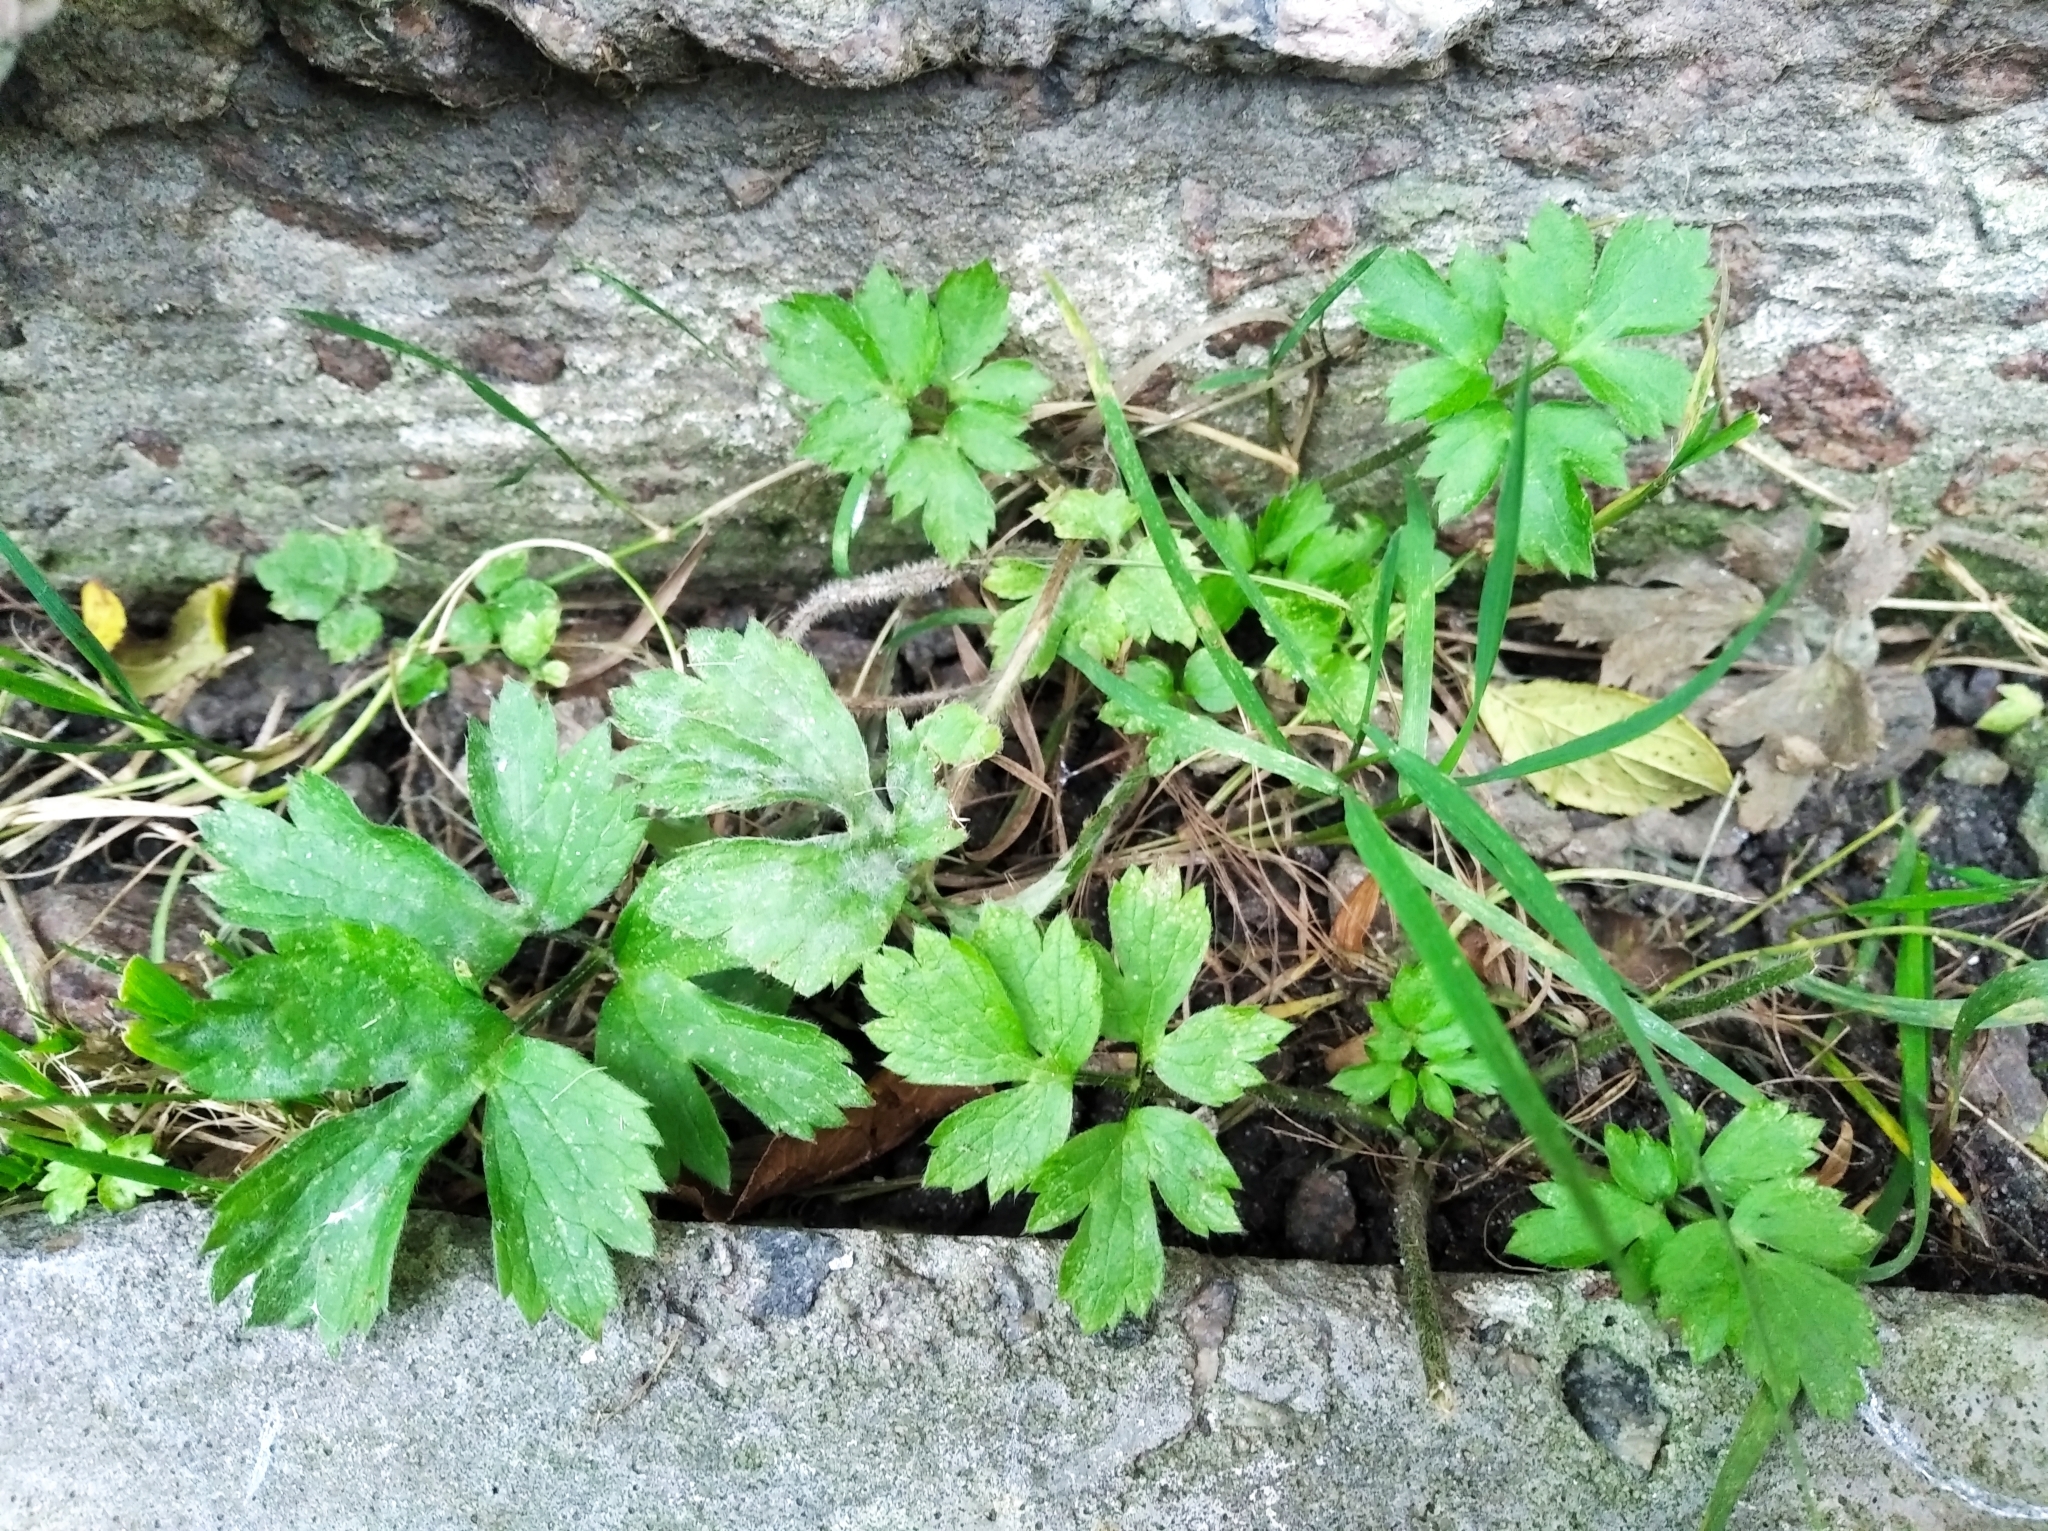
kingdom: Plantae
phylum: Tracheophyta
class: Magnoliopsida
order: Ranunculales
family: Ranunculaceae
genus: Ranunculus
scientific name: Ranunculus repens
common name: Creeping buttercup
